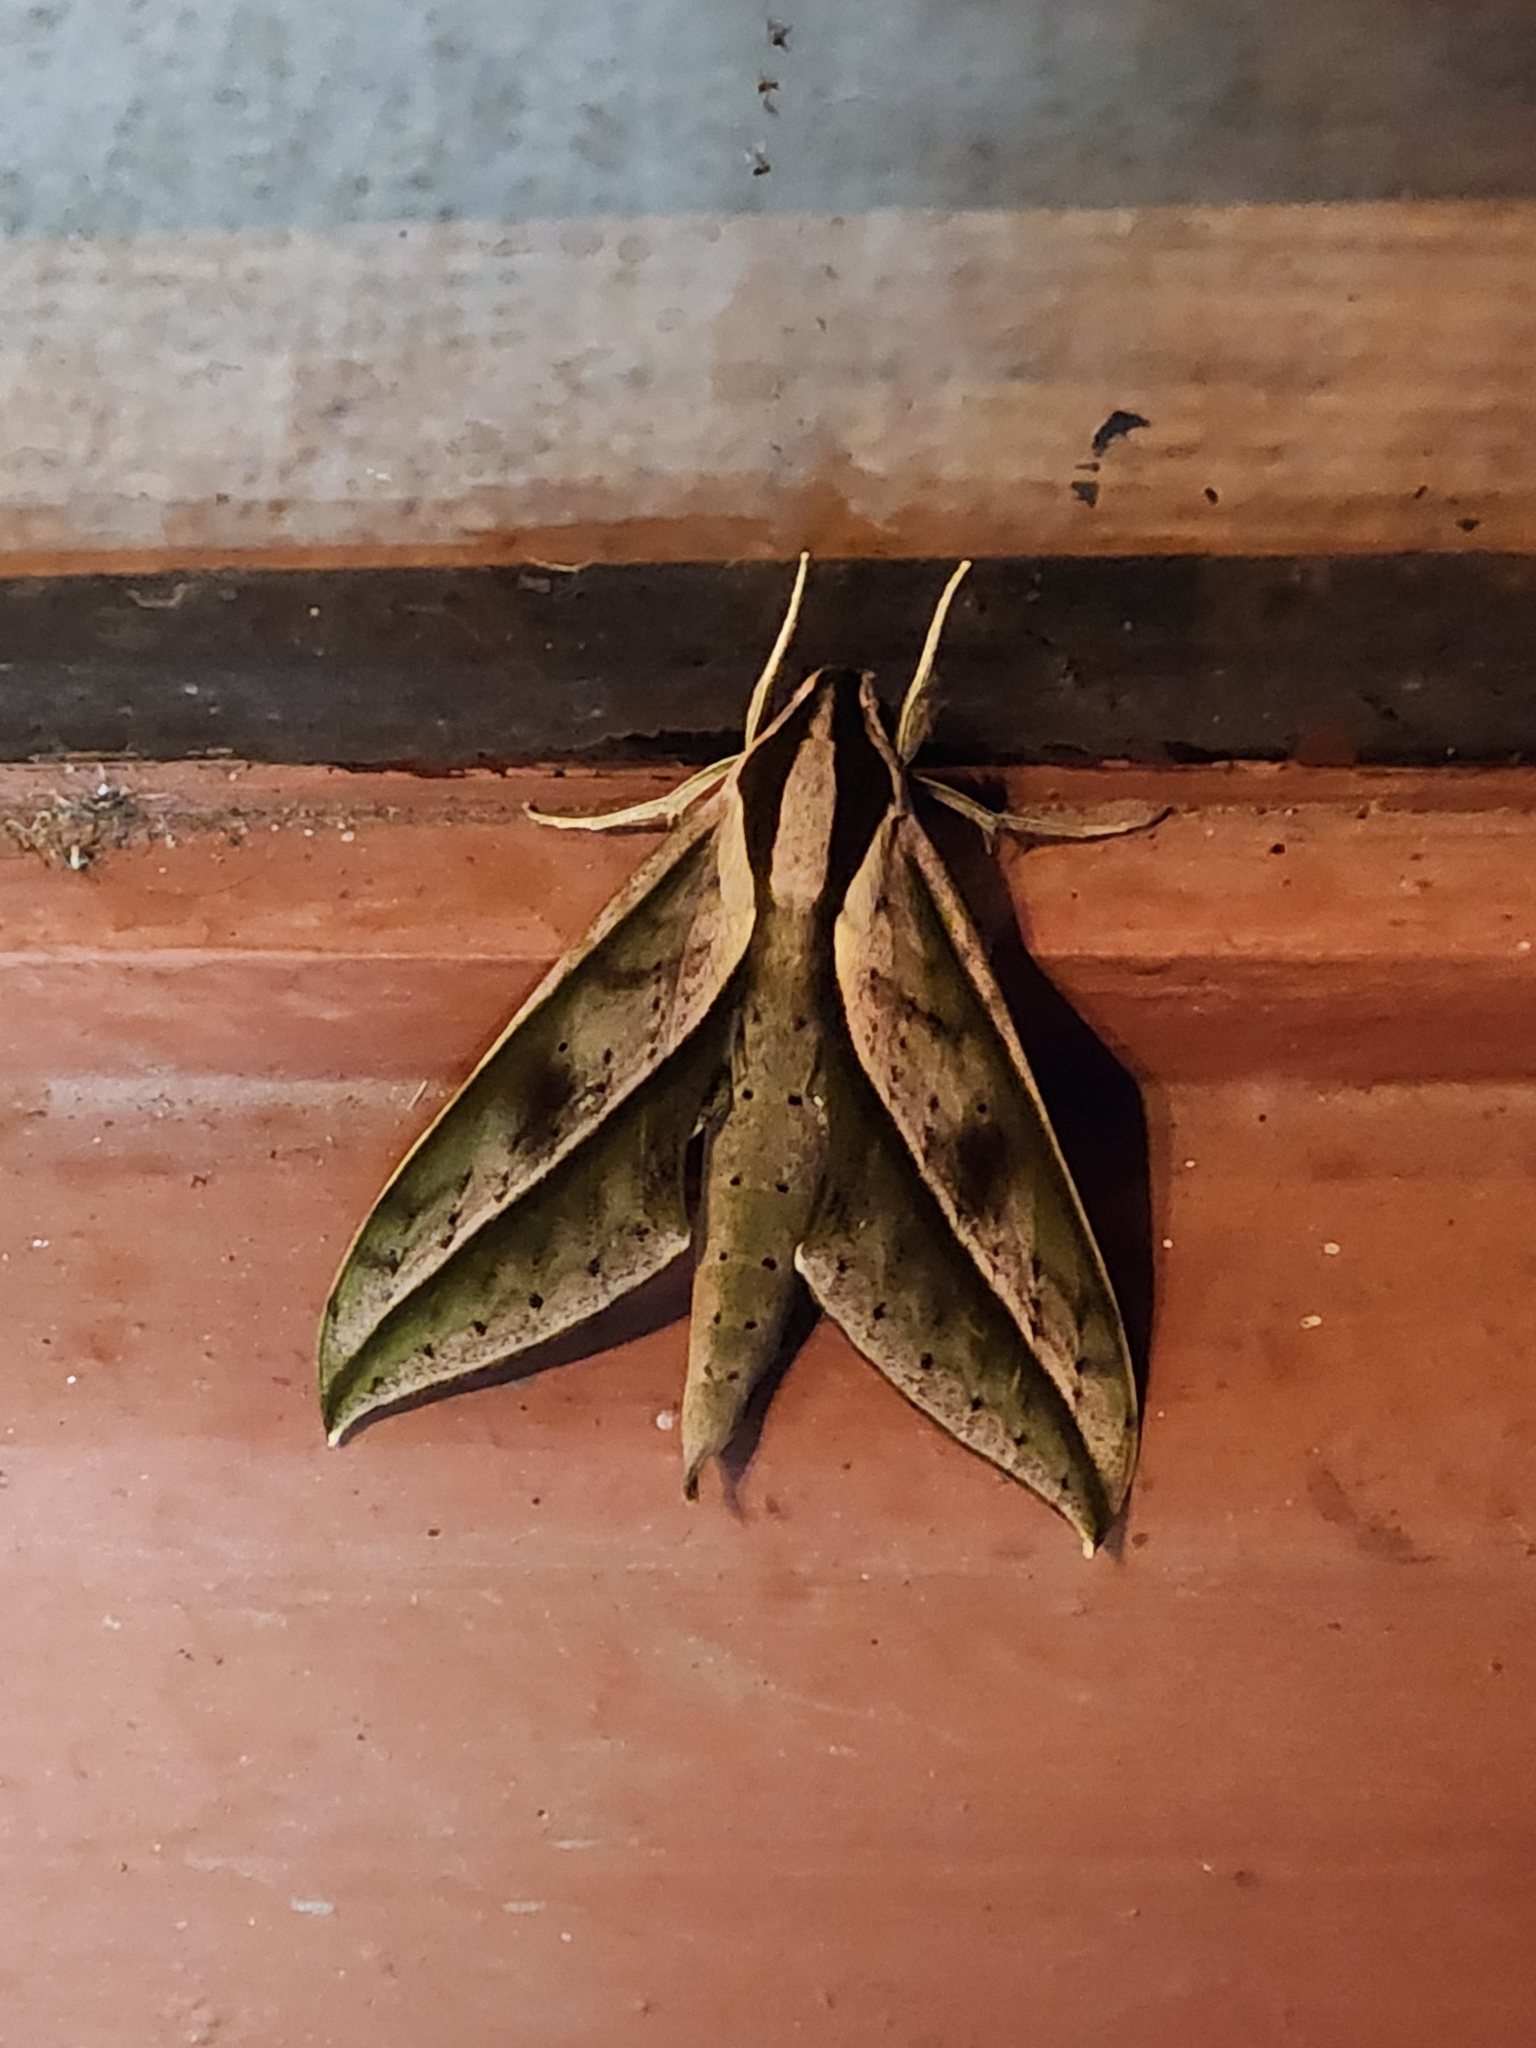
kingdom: Animalia
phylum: Arthropoda
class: Insecta
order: Lepidoptera
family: Sphingidae
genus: Xylophanes
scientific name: Xylophanes acrus
